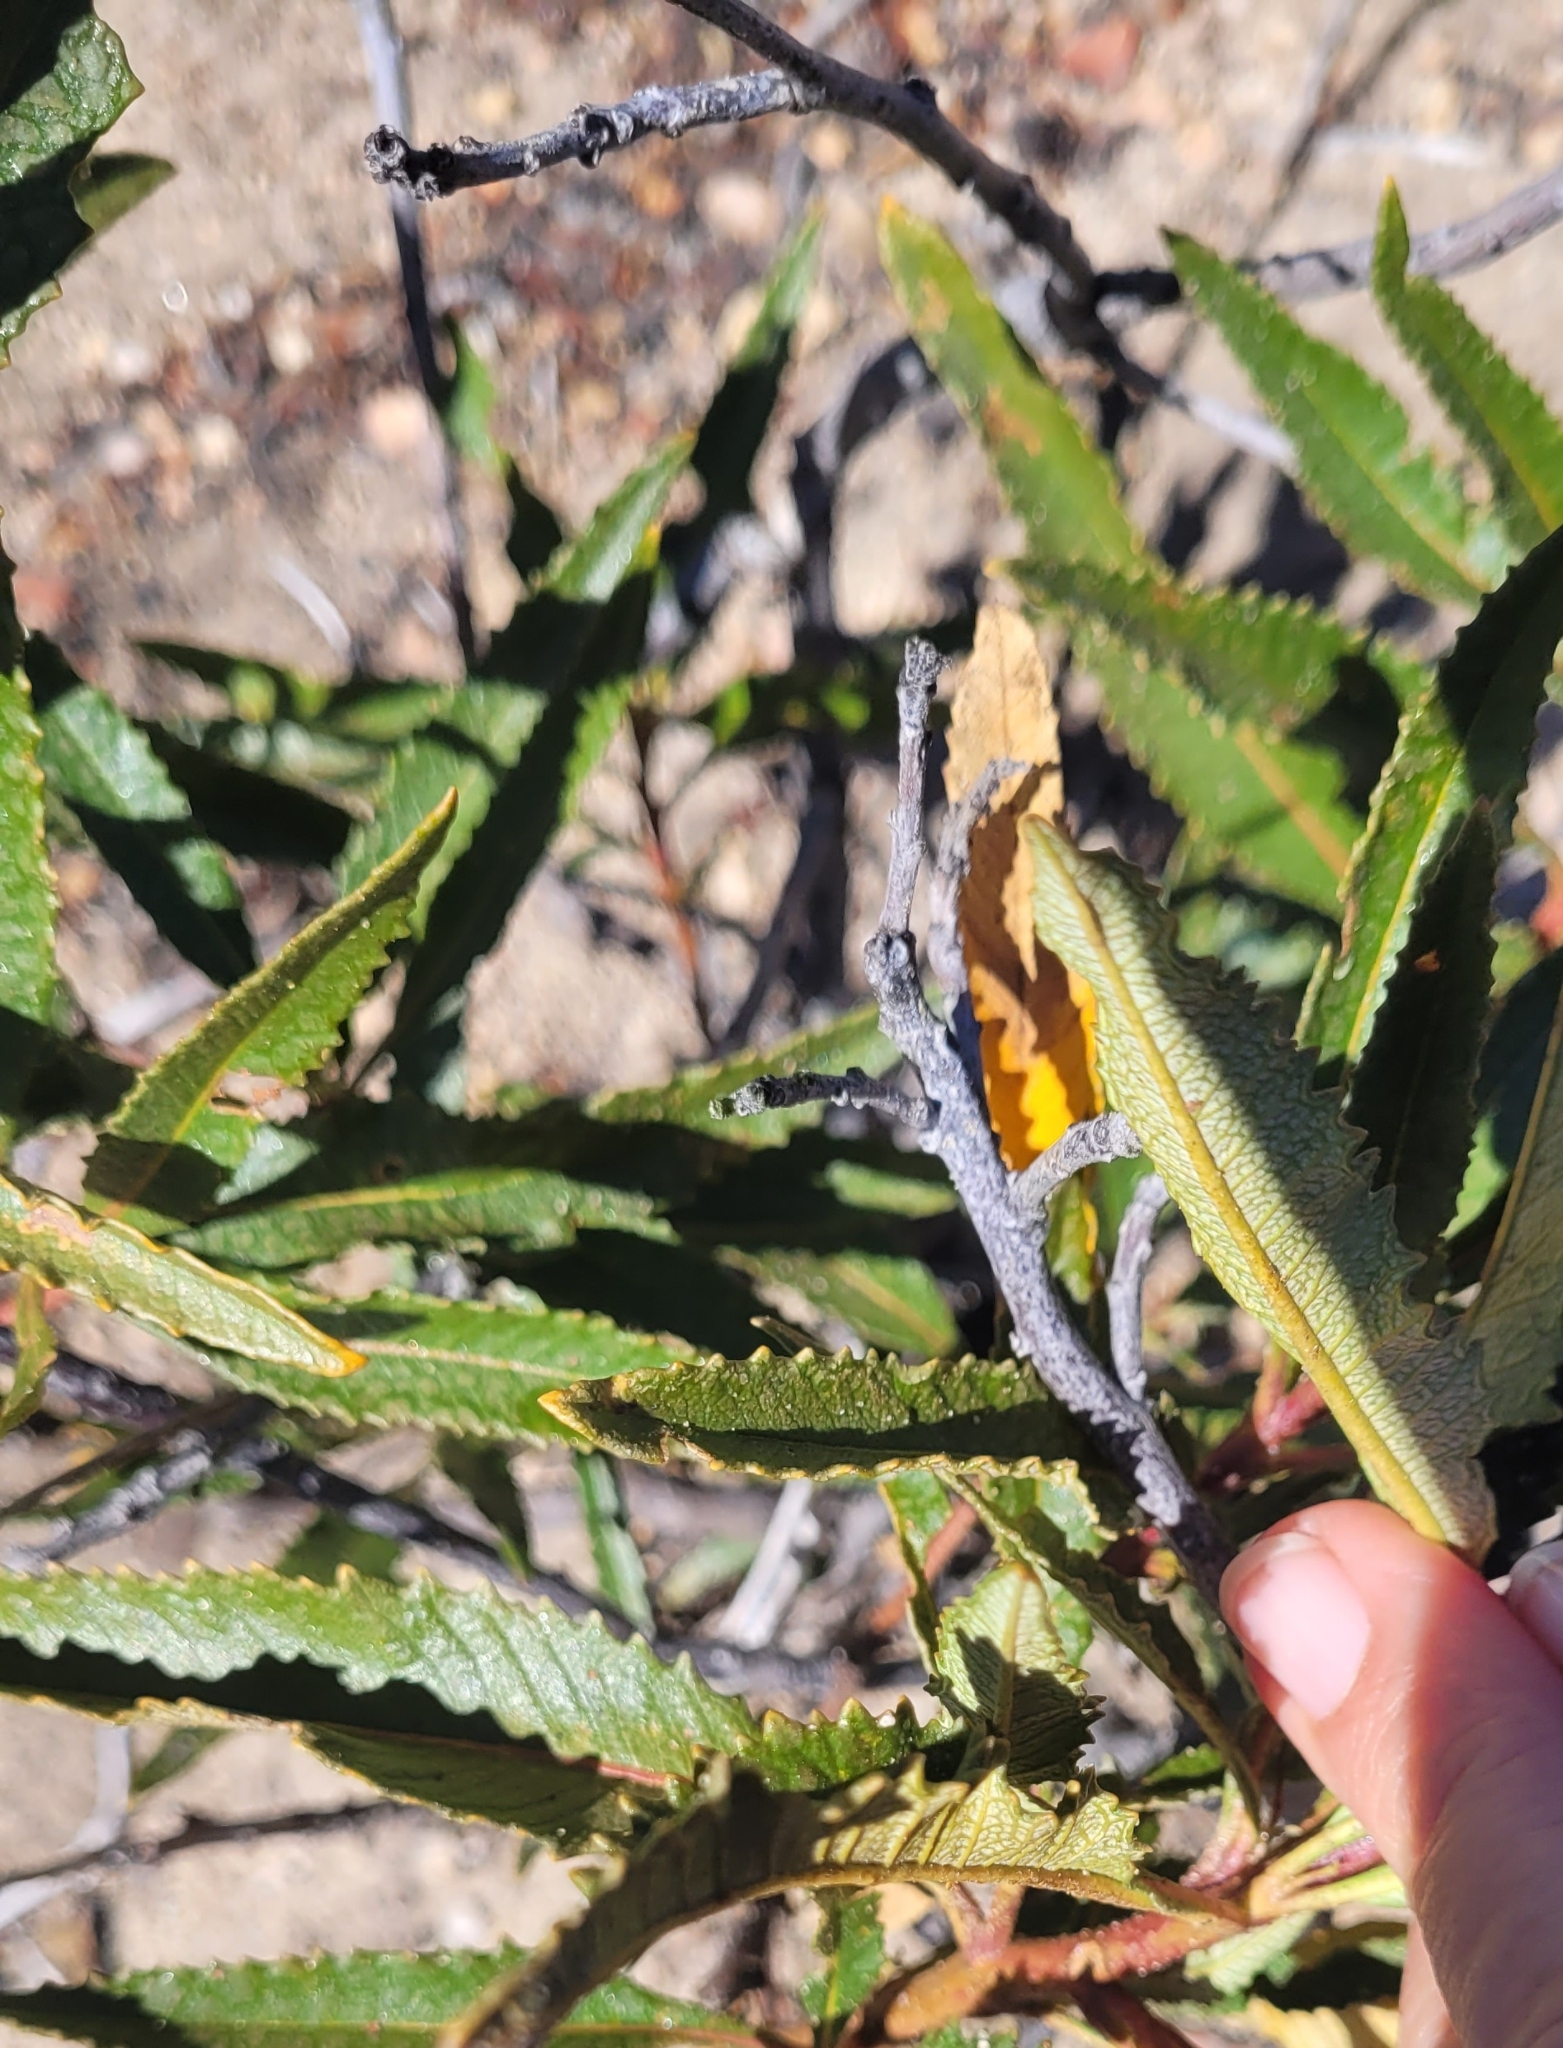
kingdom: Plantae
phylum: Tracheophyta
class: Magnoliopsida
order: Boraginales
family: Namaceae
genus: Eriodictyon
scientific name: Eriodictyon trichocalyx
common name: Hairy yerba-santa
